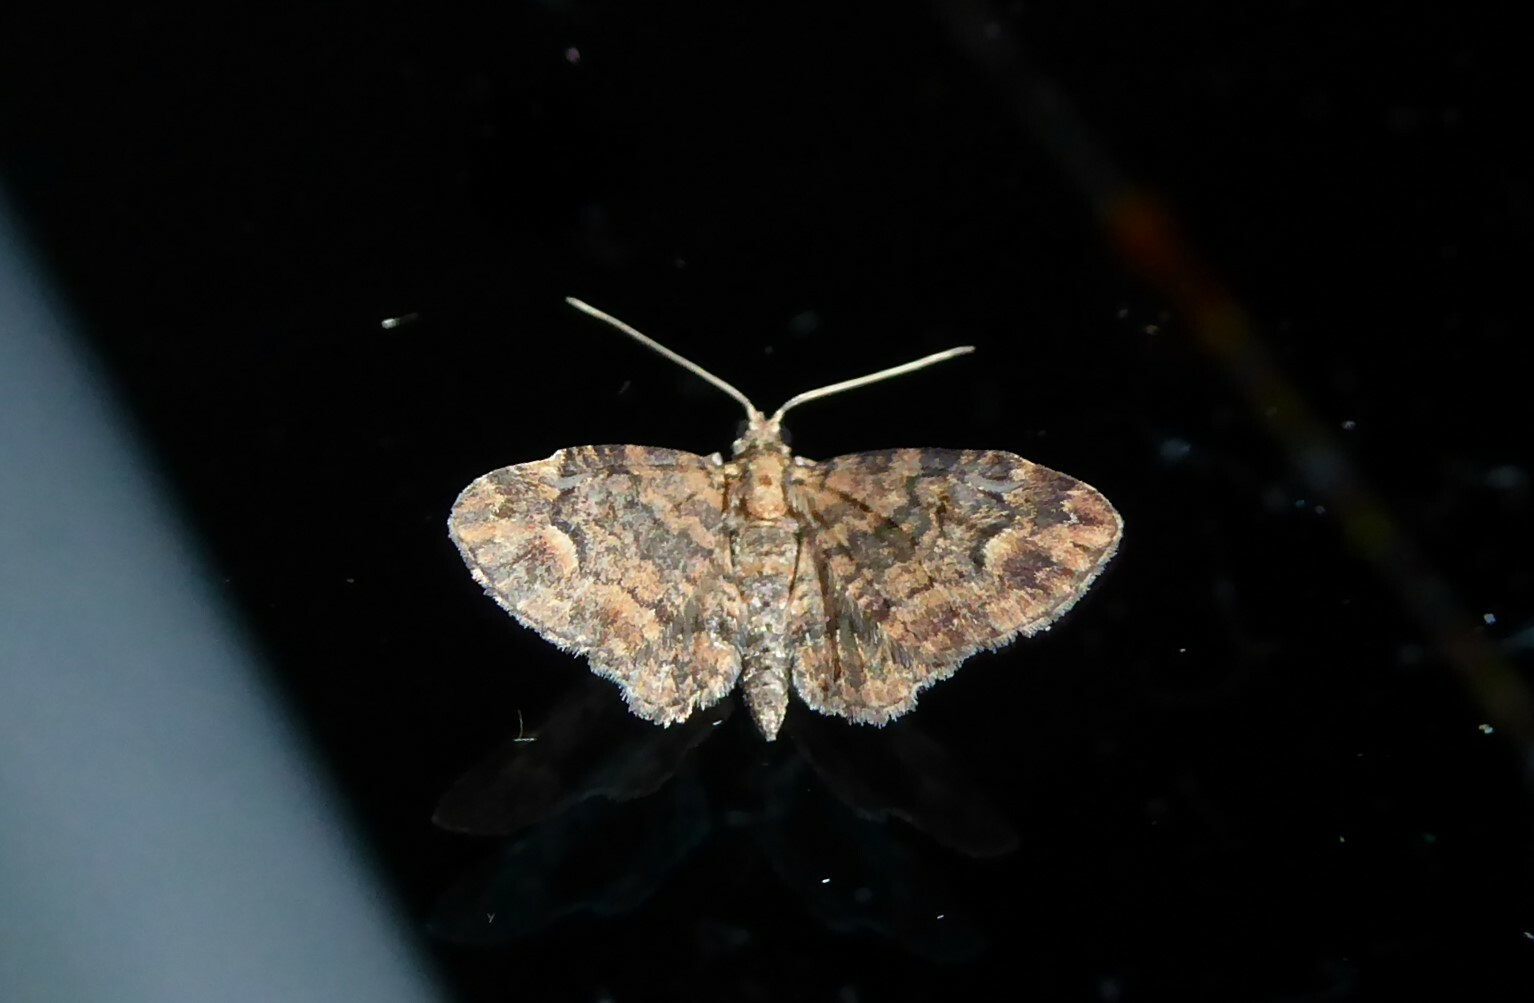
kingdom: Animalia
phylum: Arthropoda
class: Insecta
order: Lepidoptera
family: Geometridae
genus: Pasiphilodes
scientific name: Pasiphilodes testulata
